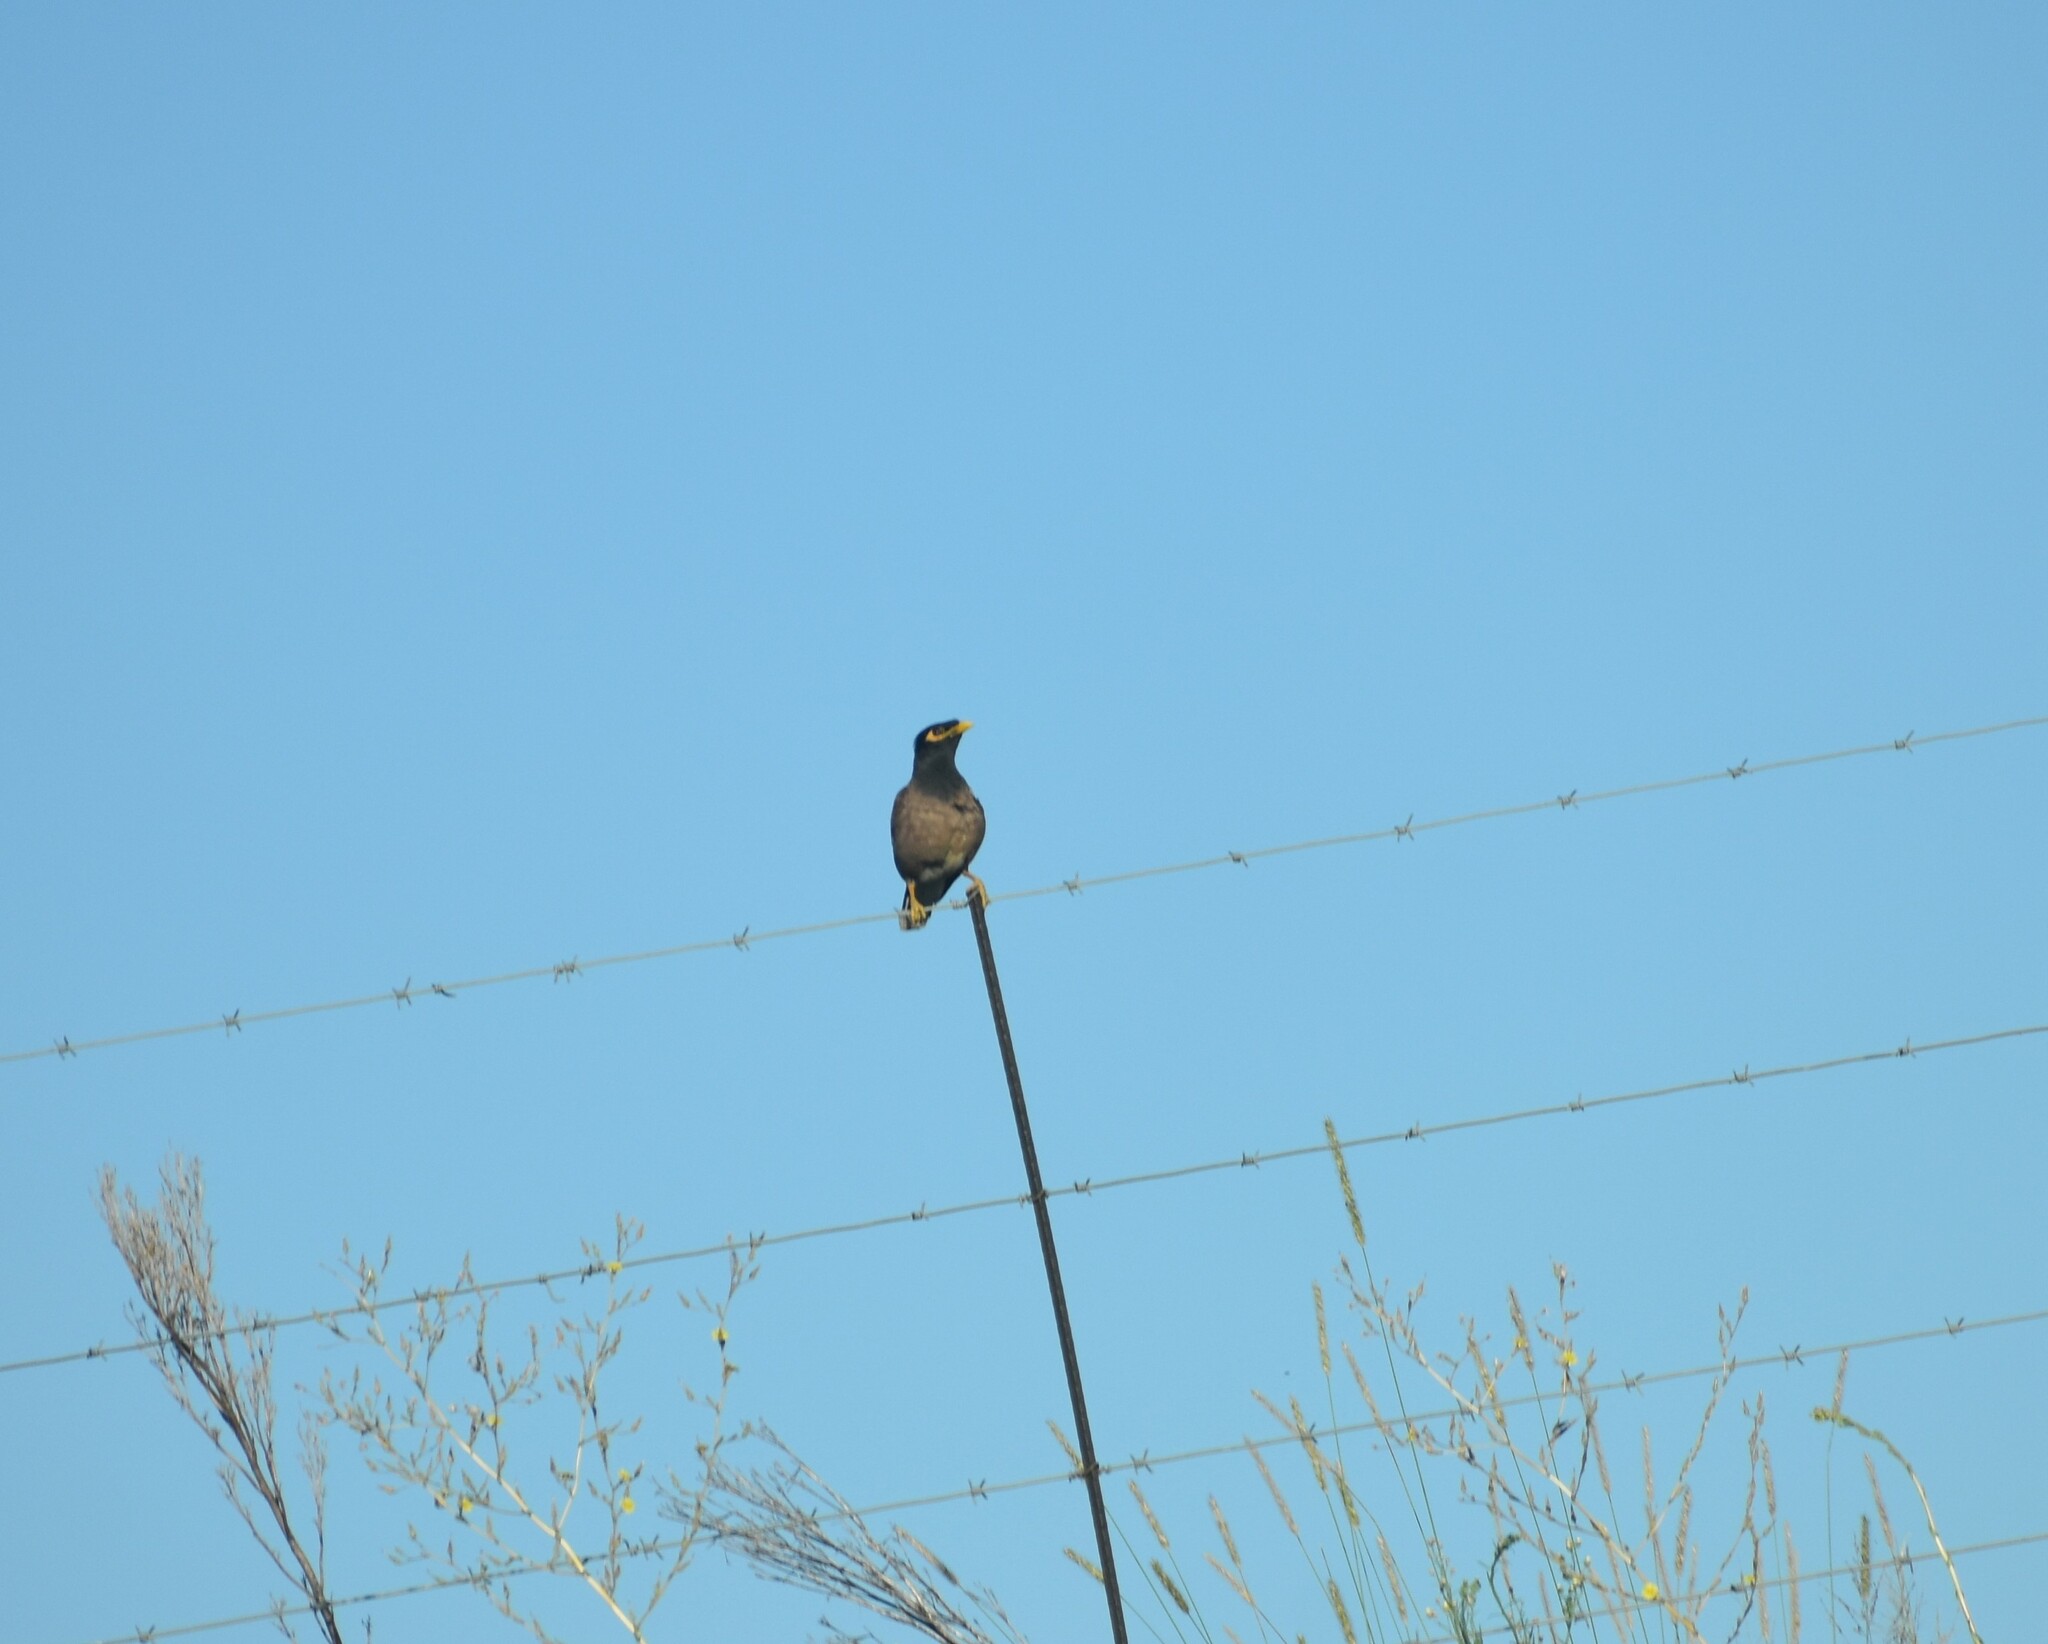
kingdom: Animalia
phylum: Chordata
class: Aves
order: Passeriformes
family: Sturnidae
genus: Acridotheres
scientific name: Acridotheres tristis
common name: Common myna
